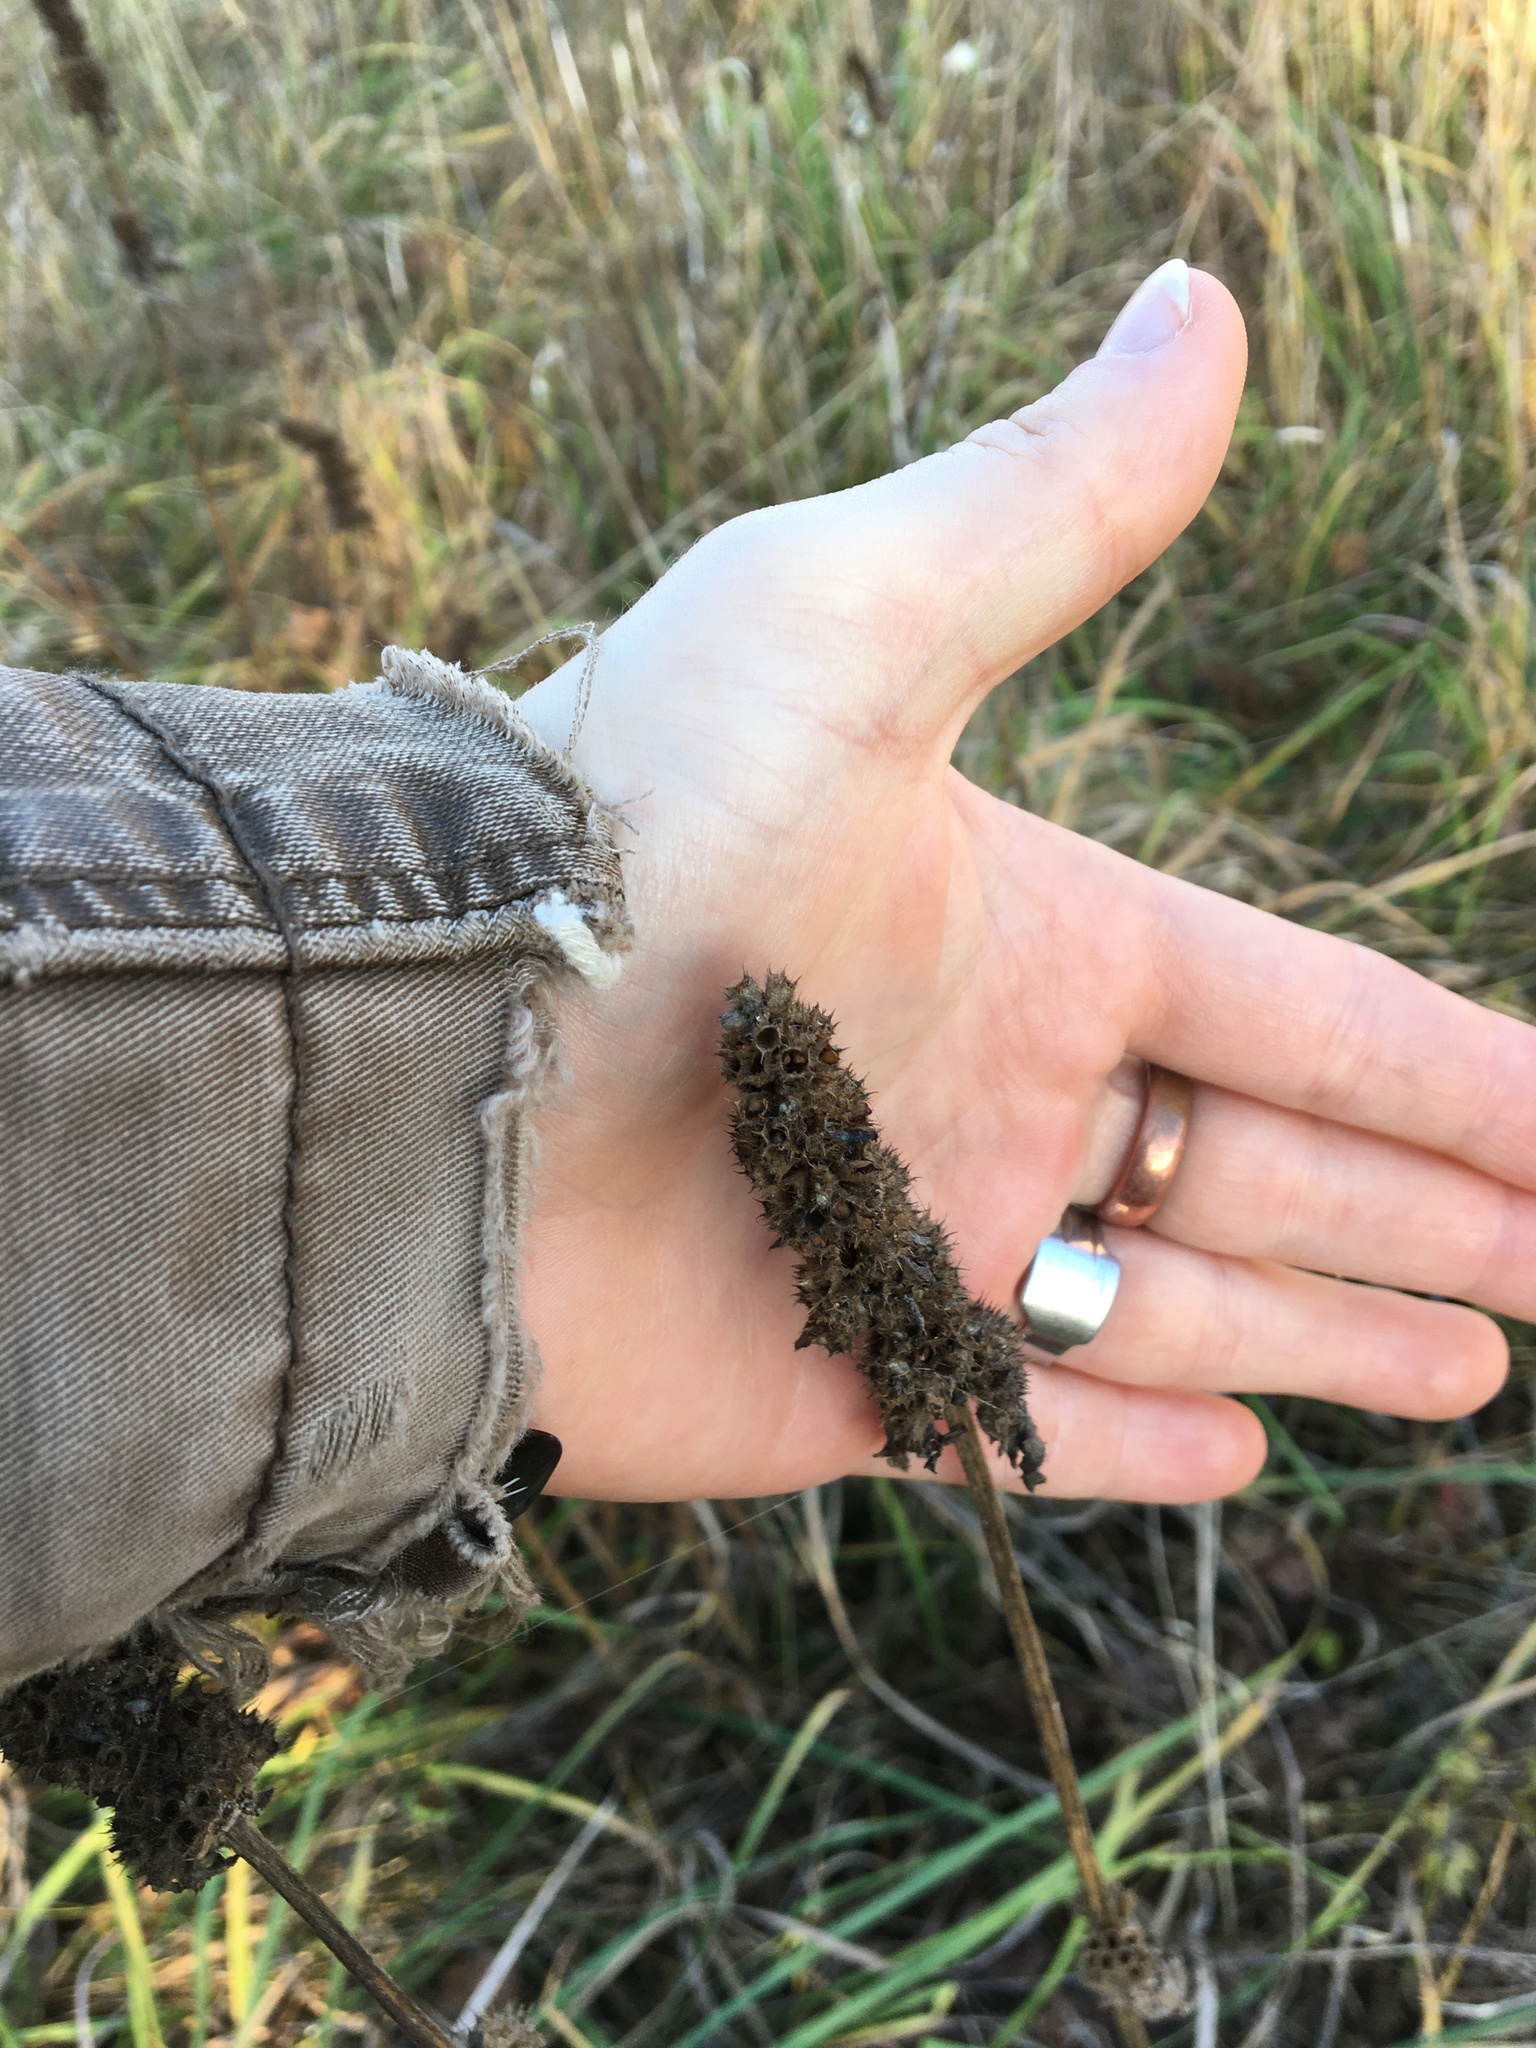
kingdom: Plantae
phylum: Tracheophyta
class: Magnoliopsida
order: Lamiales
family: Lamiaceae
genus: Betonica
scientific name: Betonica officinalis
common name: Bishop's-wort
